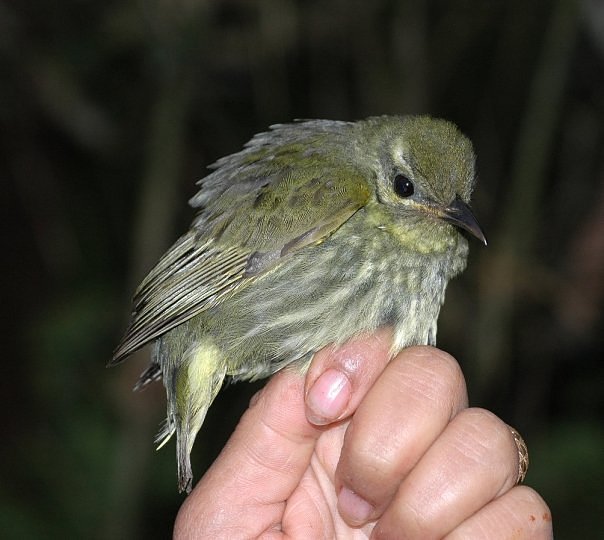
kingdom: Animalia
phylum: Chordata
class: Aves
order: Passeriformes
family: Philepittidae
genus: Philepitta
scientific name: Philepitta castanea
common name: Velvet asity
